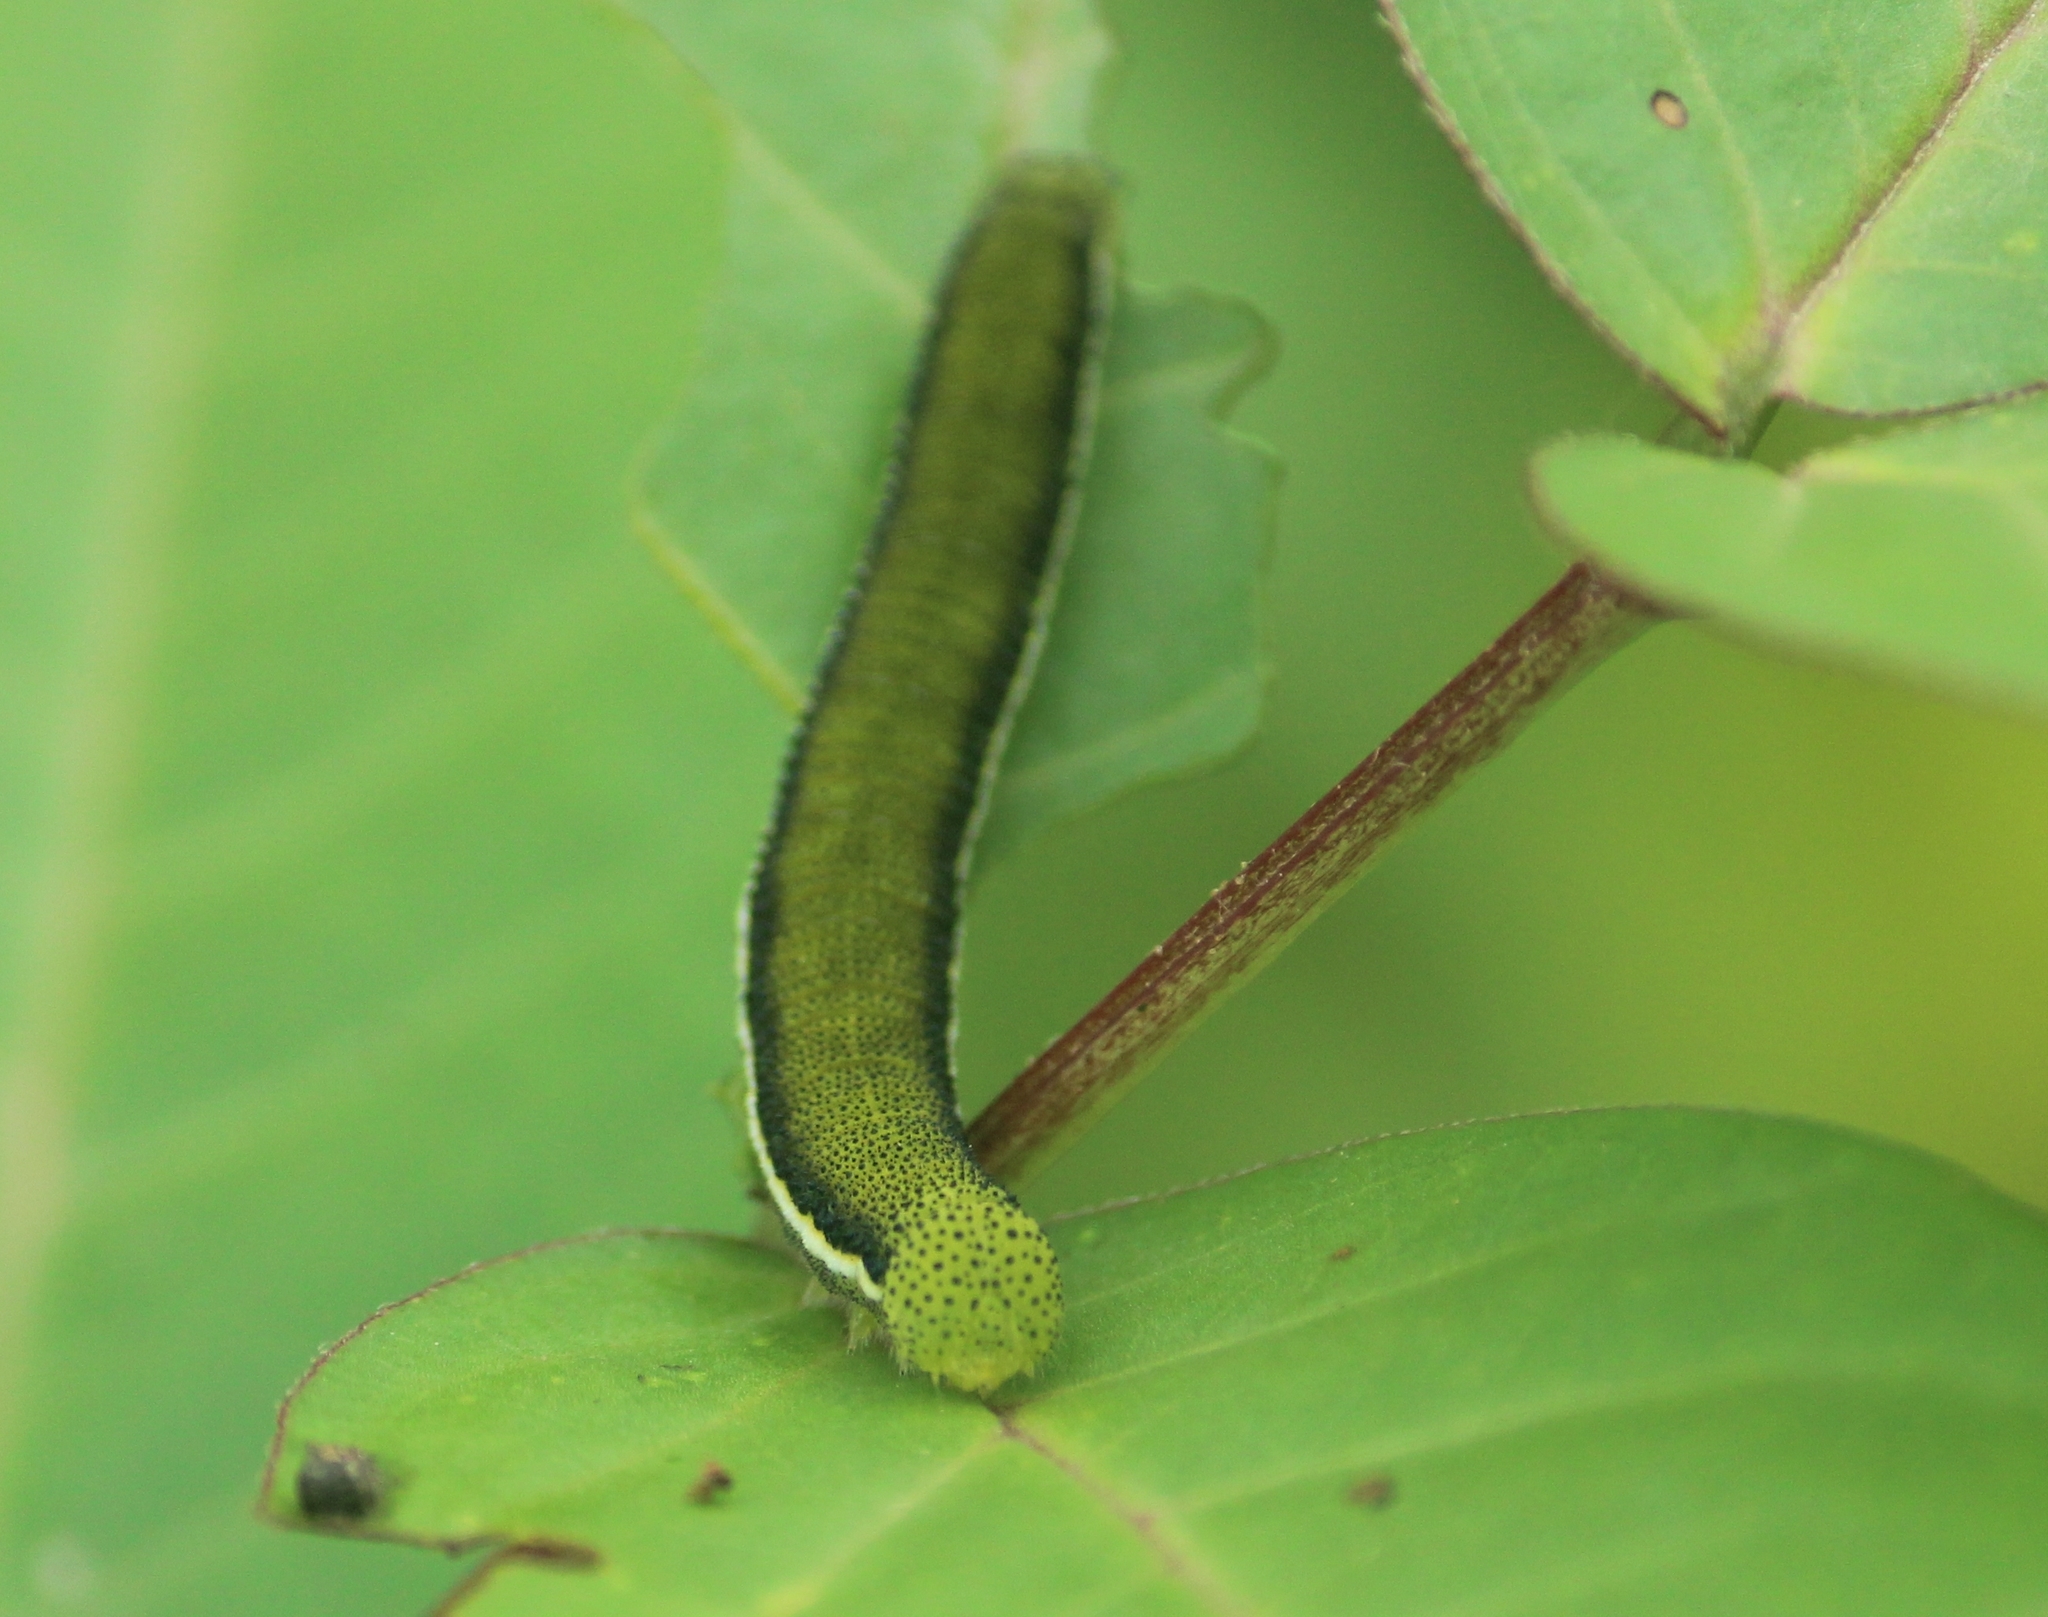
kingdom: Animalia
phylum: Arthropoda
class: Insecta
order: Lepidoptera
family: Pieridae
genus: Catopsilia
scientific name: Catopsilia pyranthe
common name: Mottled emigrant
